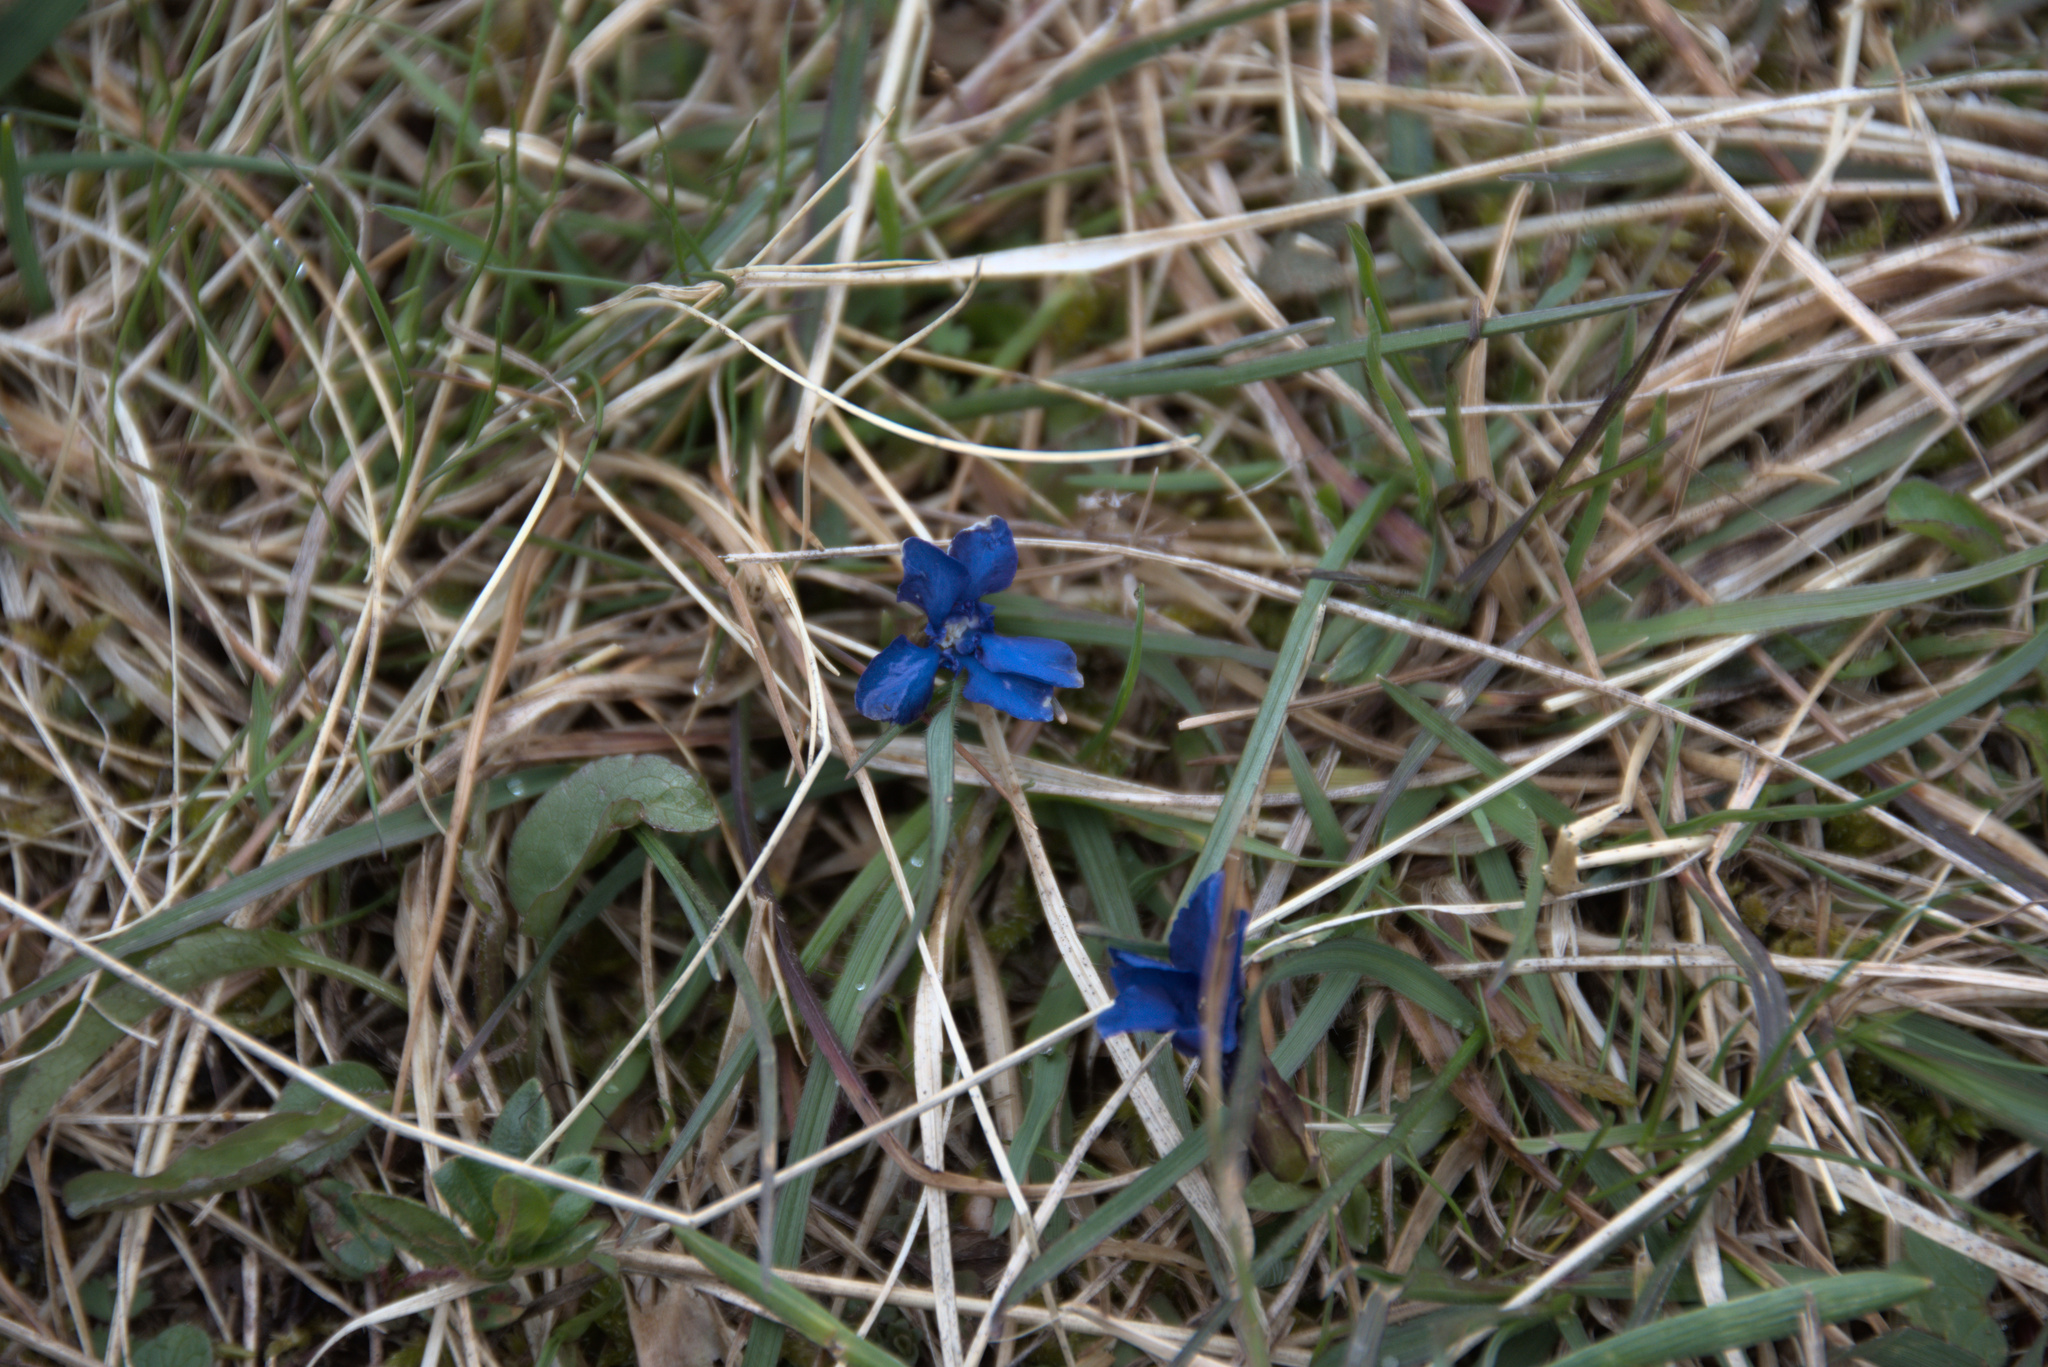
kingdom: Plantae
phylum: Tracheophyta
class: Magnoliopsida
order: Gentianales
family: Gentianaceae
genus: Gentiana
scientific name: Gentiana verna
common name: Spring gentian
